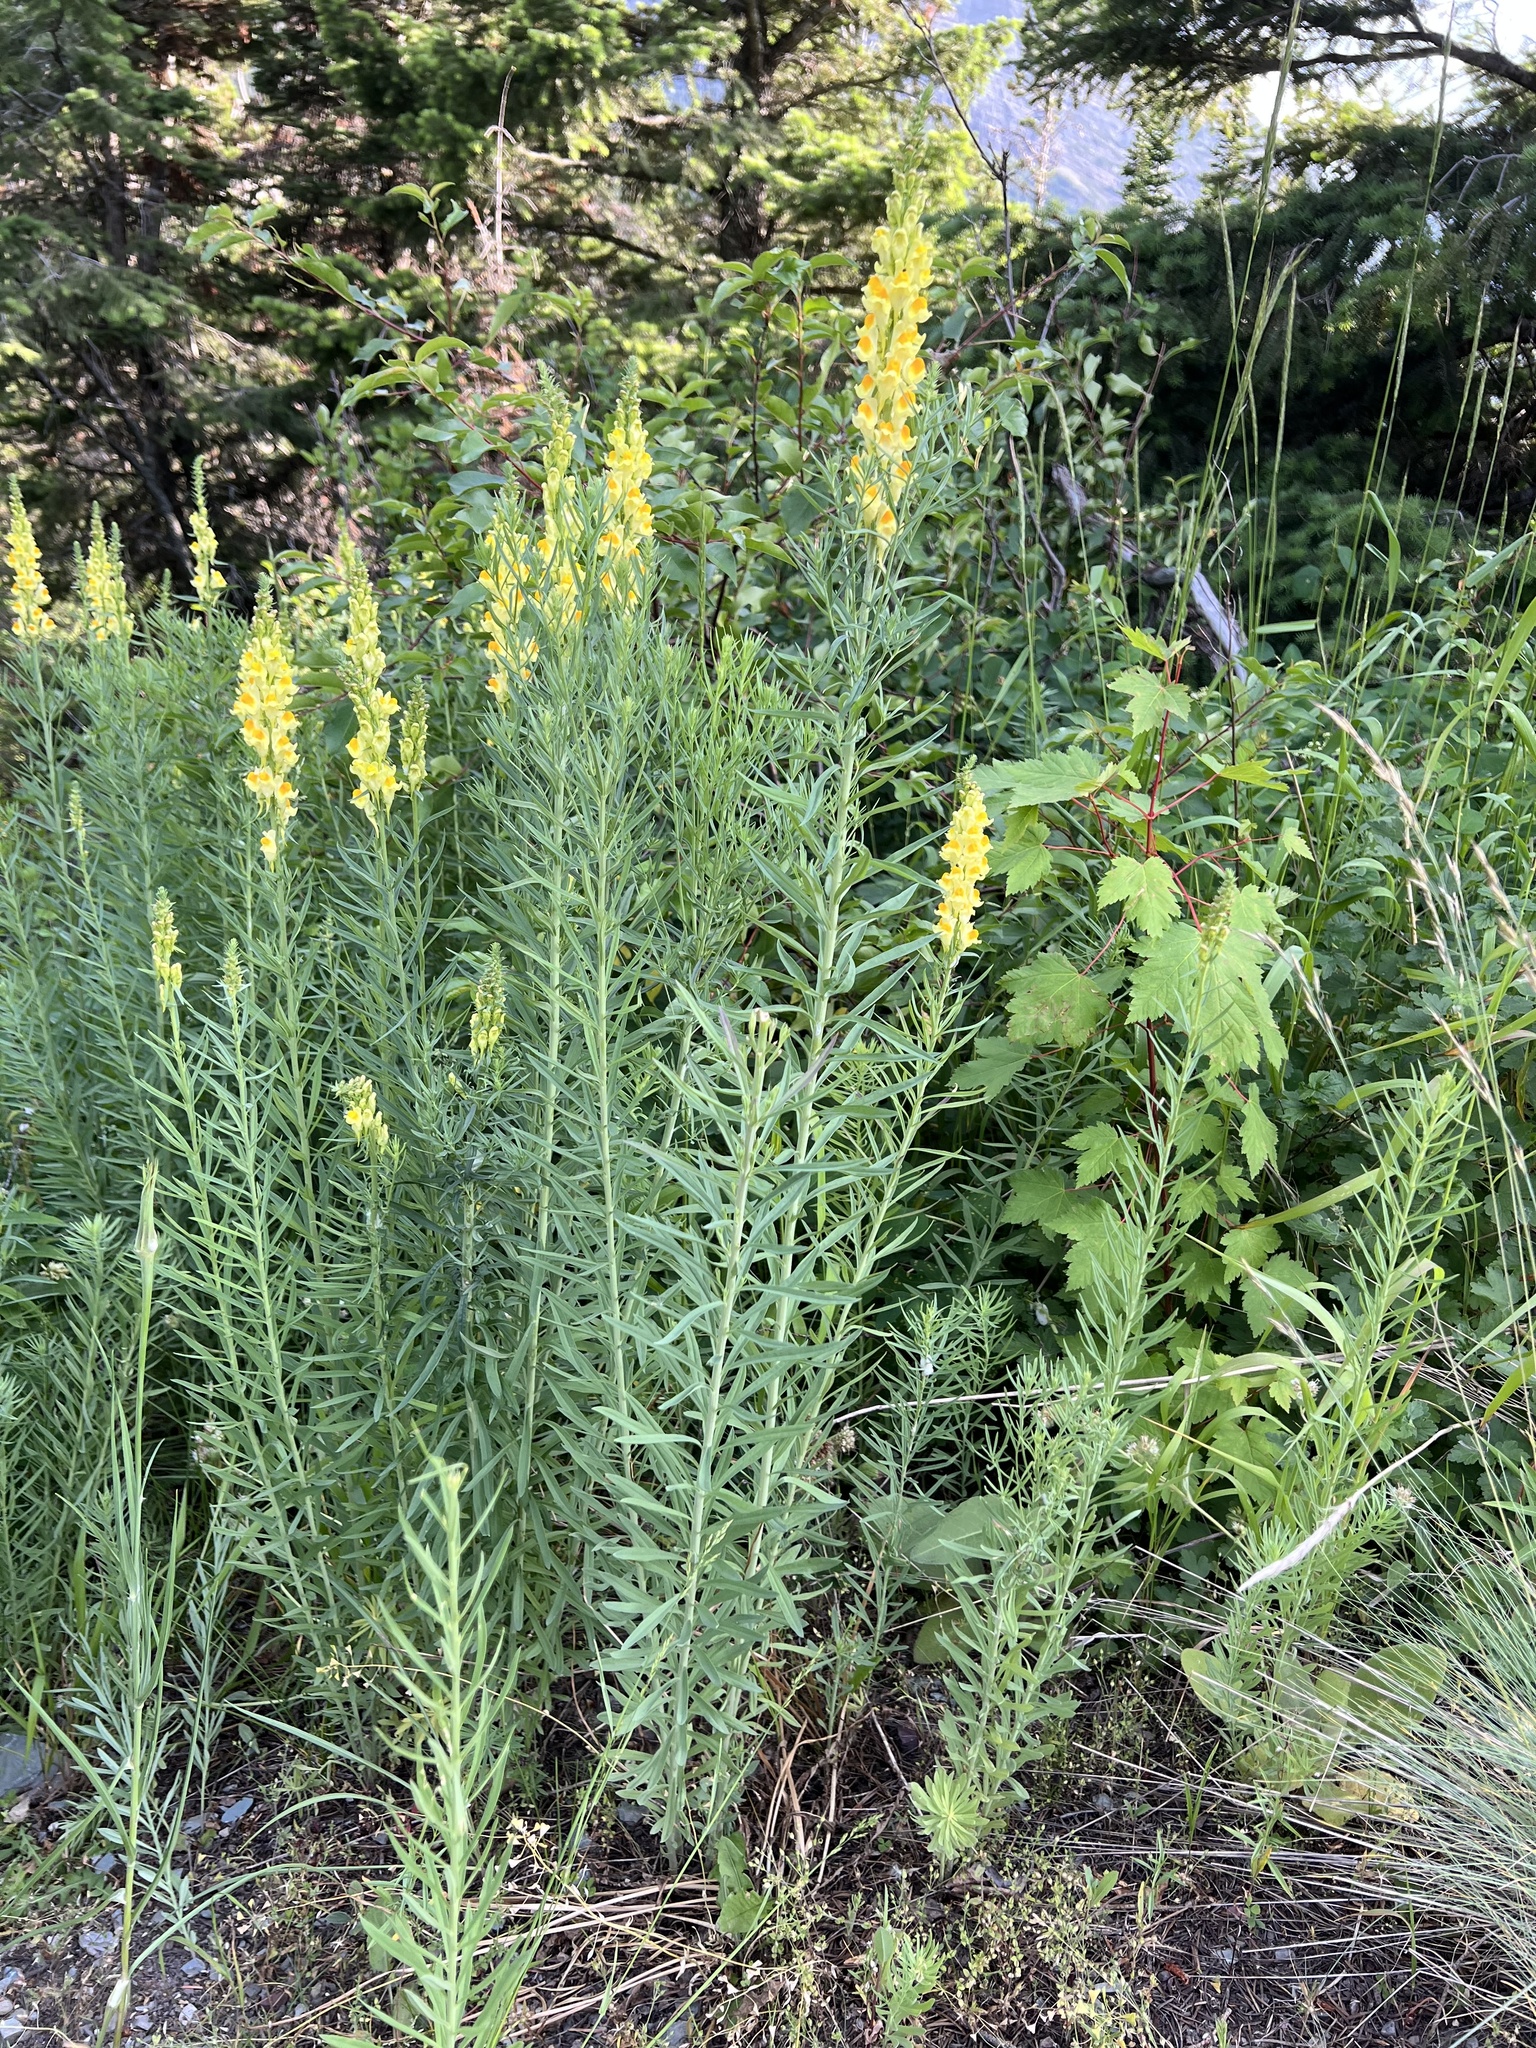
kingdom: Plantae
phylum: Tracheophyta
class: Magnoliopsida
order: Lamiales
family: Plantaginaceae
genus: Linaria
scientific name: Linaria vulgaris
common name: Butter and eggs
